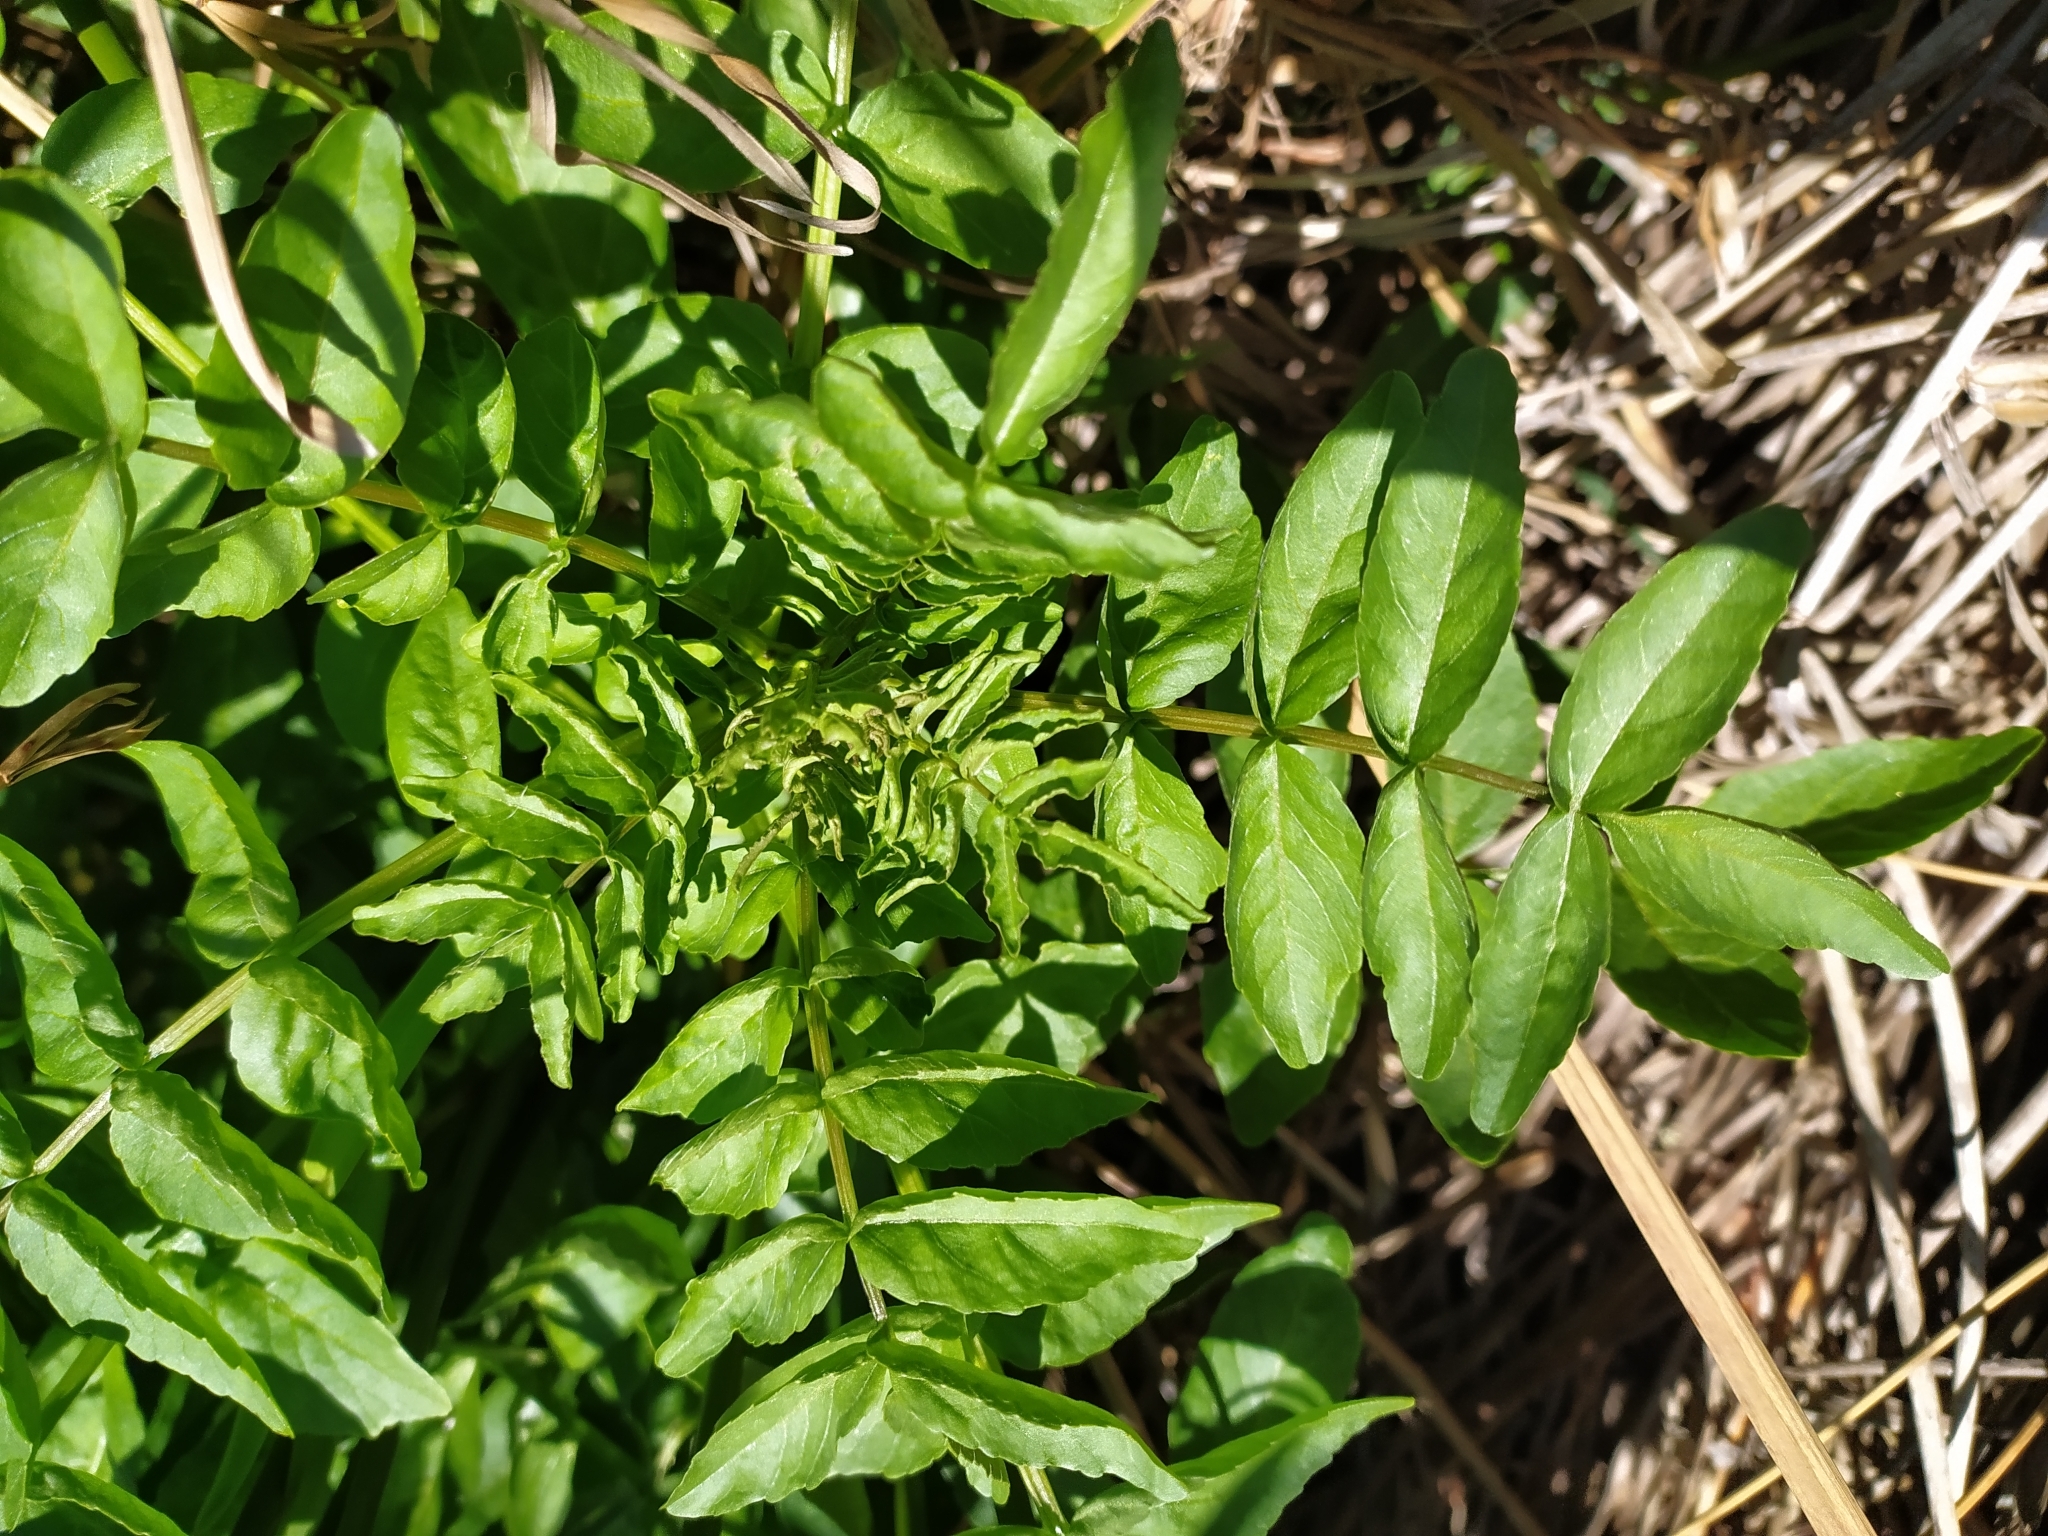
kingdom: Plantae
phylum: Tracheophyta
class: Magnoliopsida
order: Brassicales
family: Brassicaceae
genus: Nasturtium
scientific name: Nasturtium officinale
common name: Watercress
